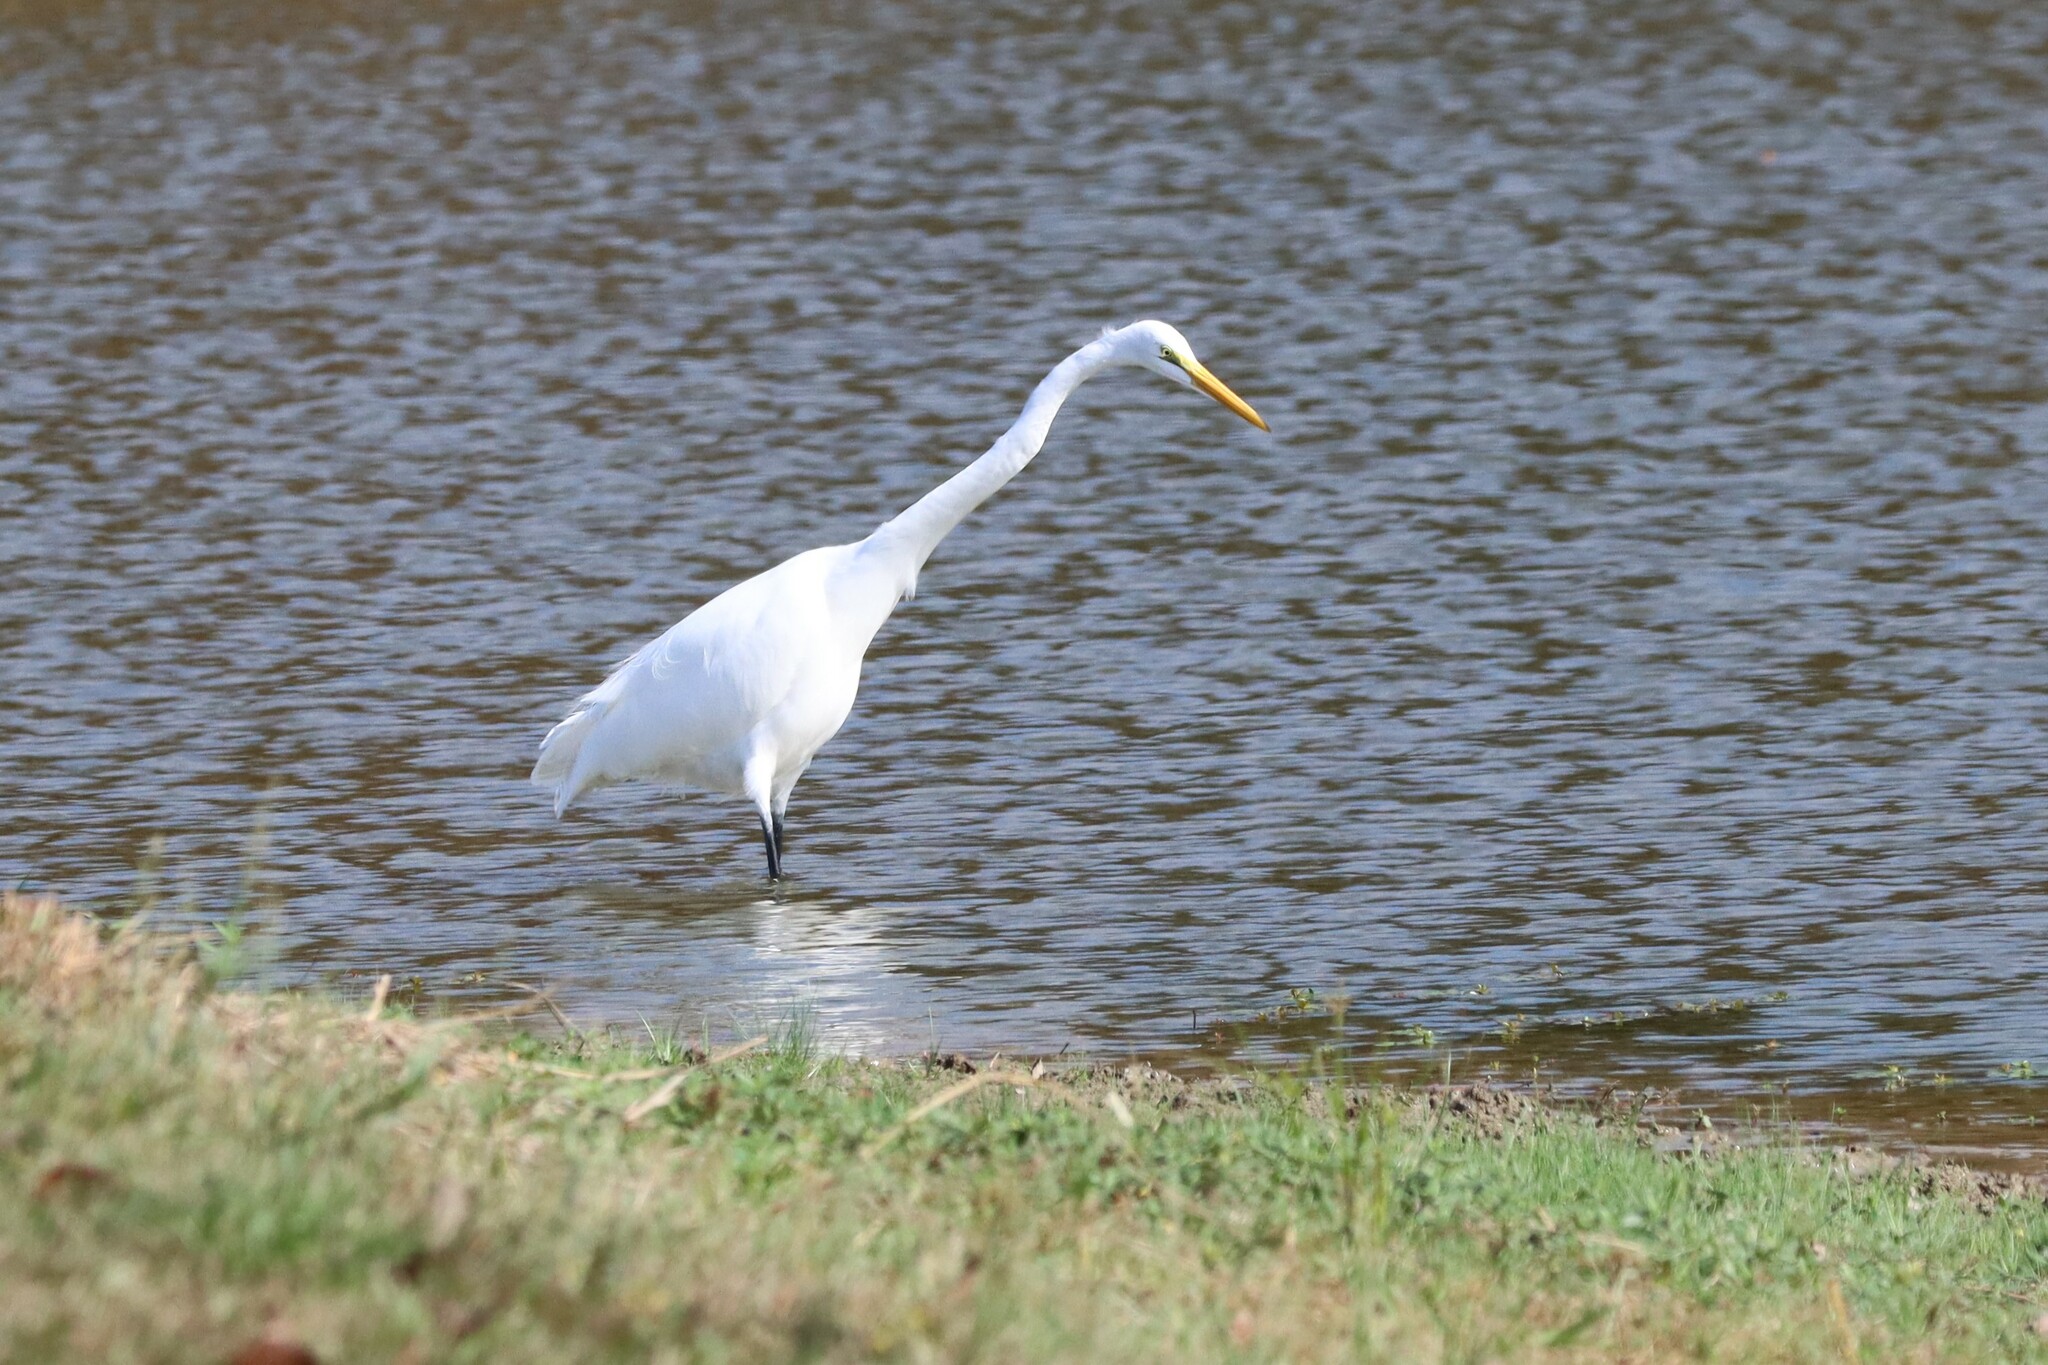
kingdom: Animalia
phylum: Chordata
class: Aves
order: Pelecaniformes
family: Ardeidae
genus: Ardea
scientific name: Ardea alba
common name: Great egret
